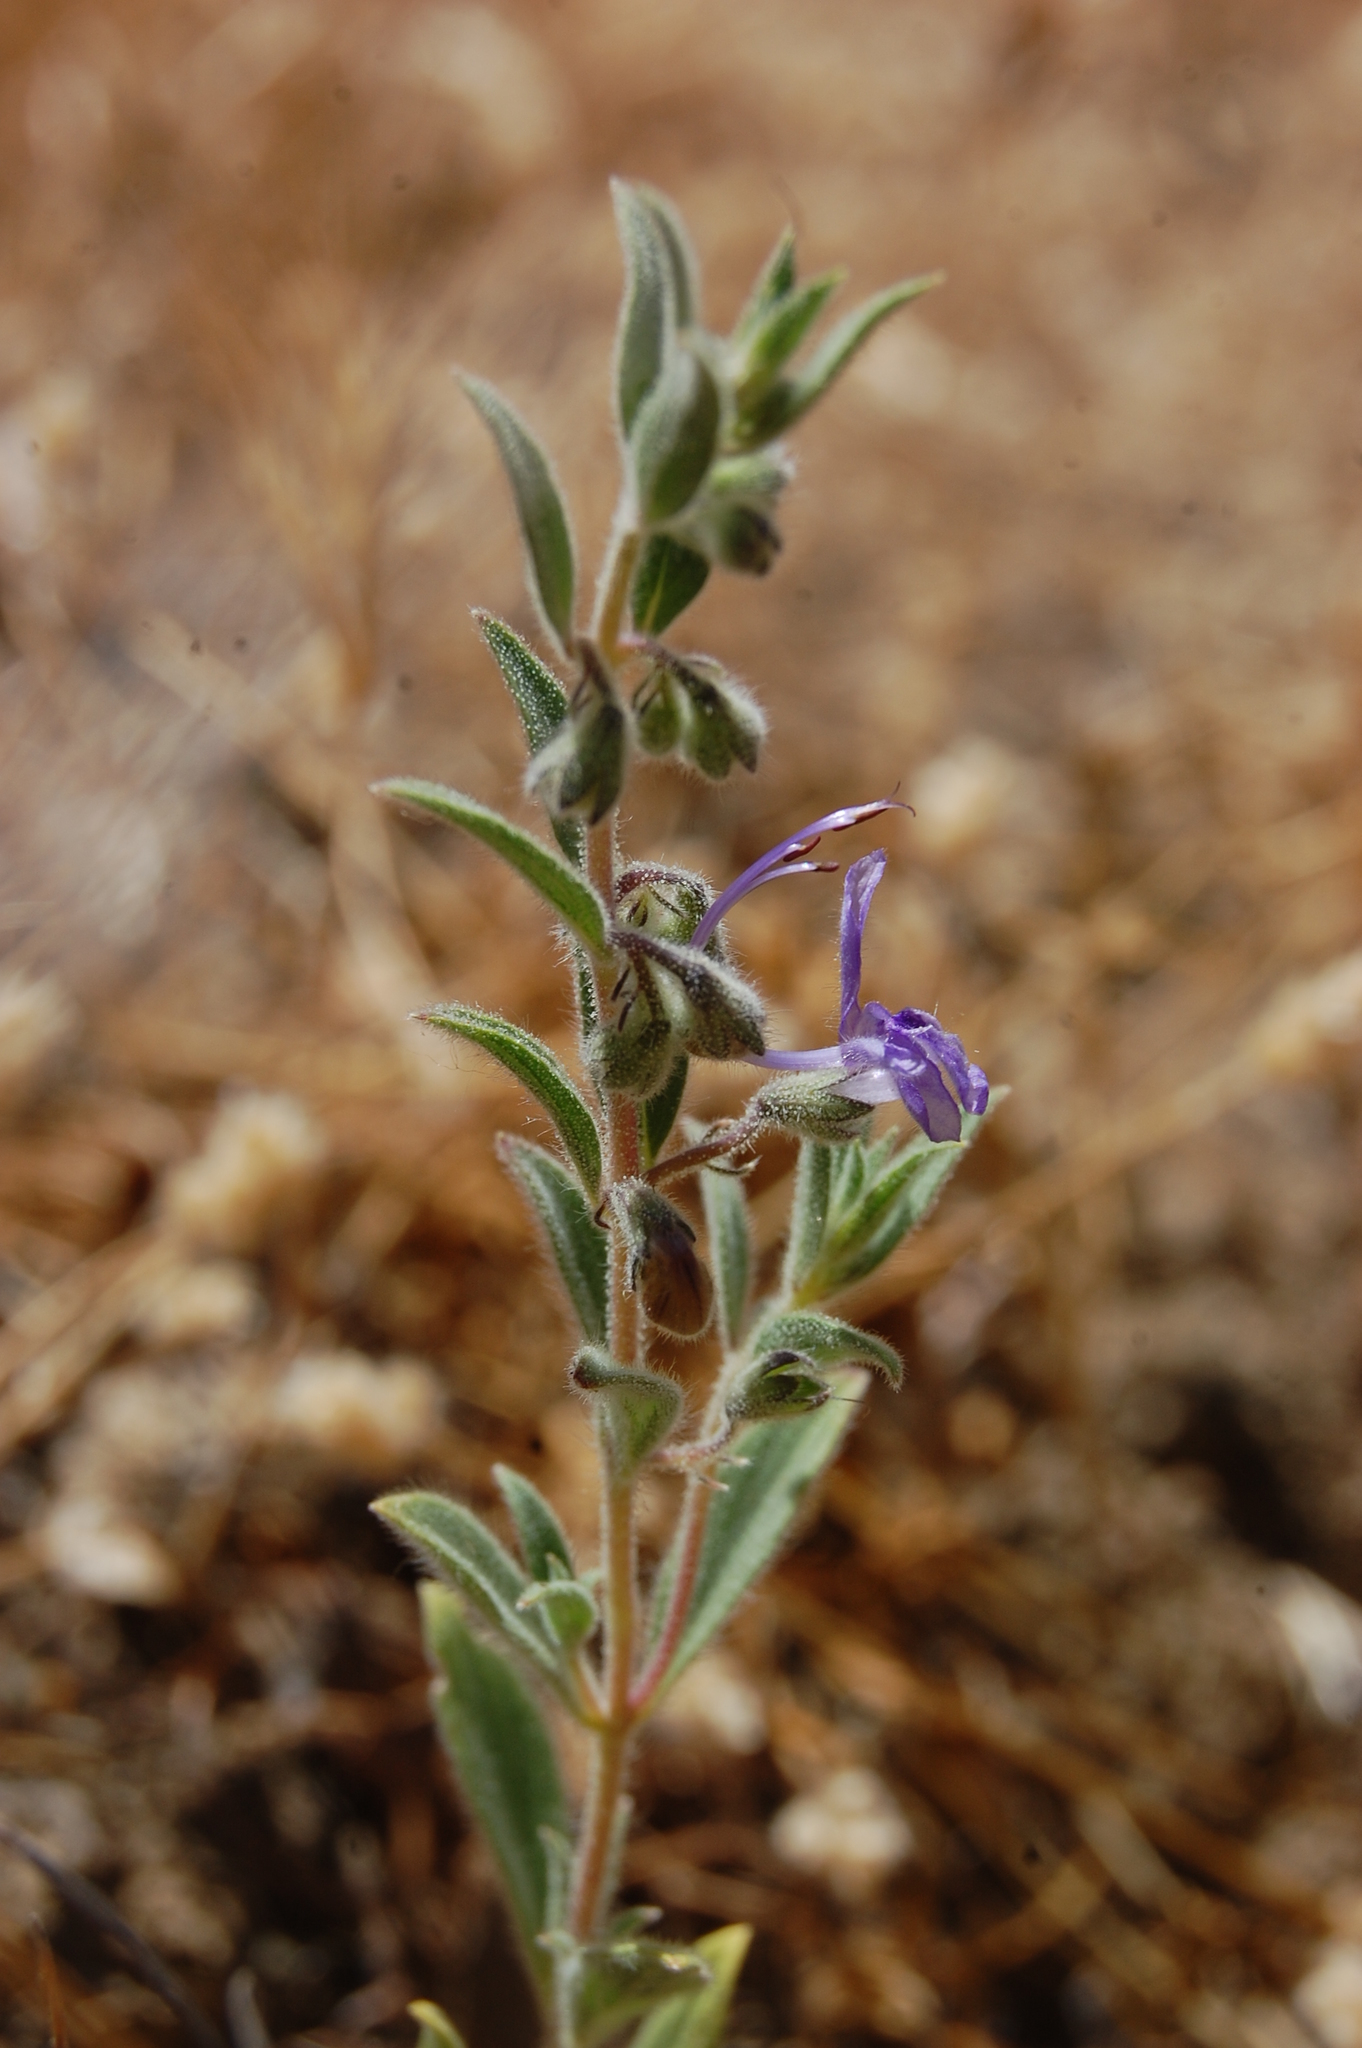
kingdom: Plantae
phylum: Tracheophyta
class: Magnoliopsida
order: Lamiales
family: Lamiaceae
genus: Trichostema
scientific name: Trichostema lanceolatum
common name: Vinegar-weed
